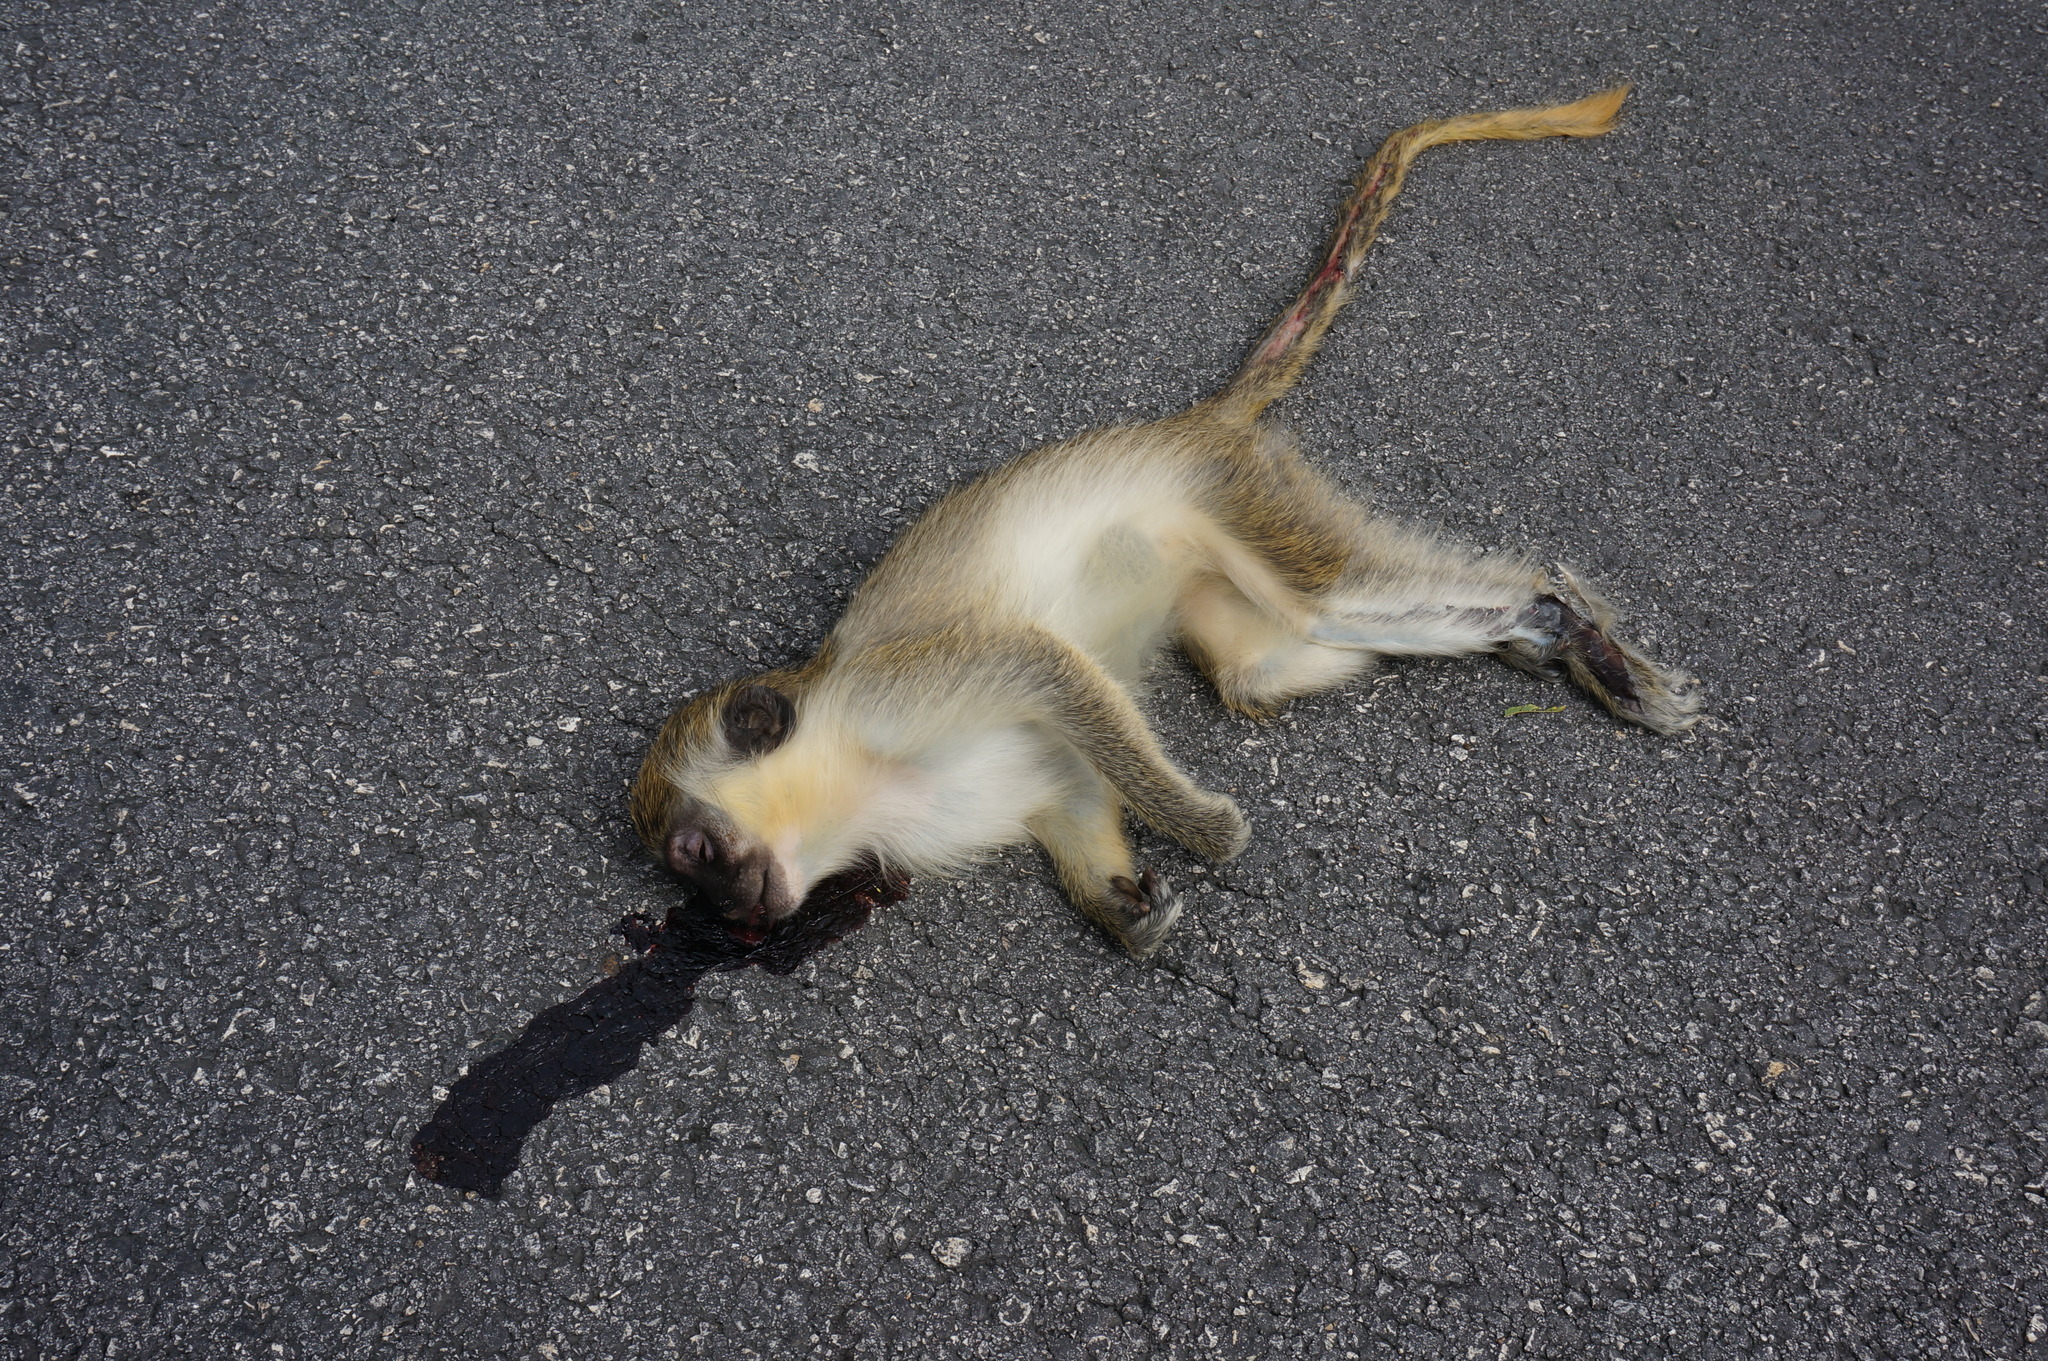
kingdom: Animalia
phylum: Chordata
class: Mammalia
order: Primates
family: Cercopithecidae
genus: Chlorocebus
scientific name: Chlorocebus sabaeus
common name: Green monkey
